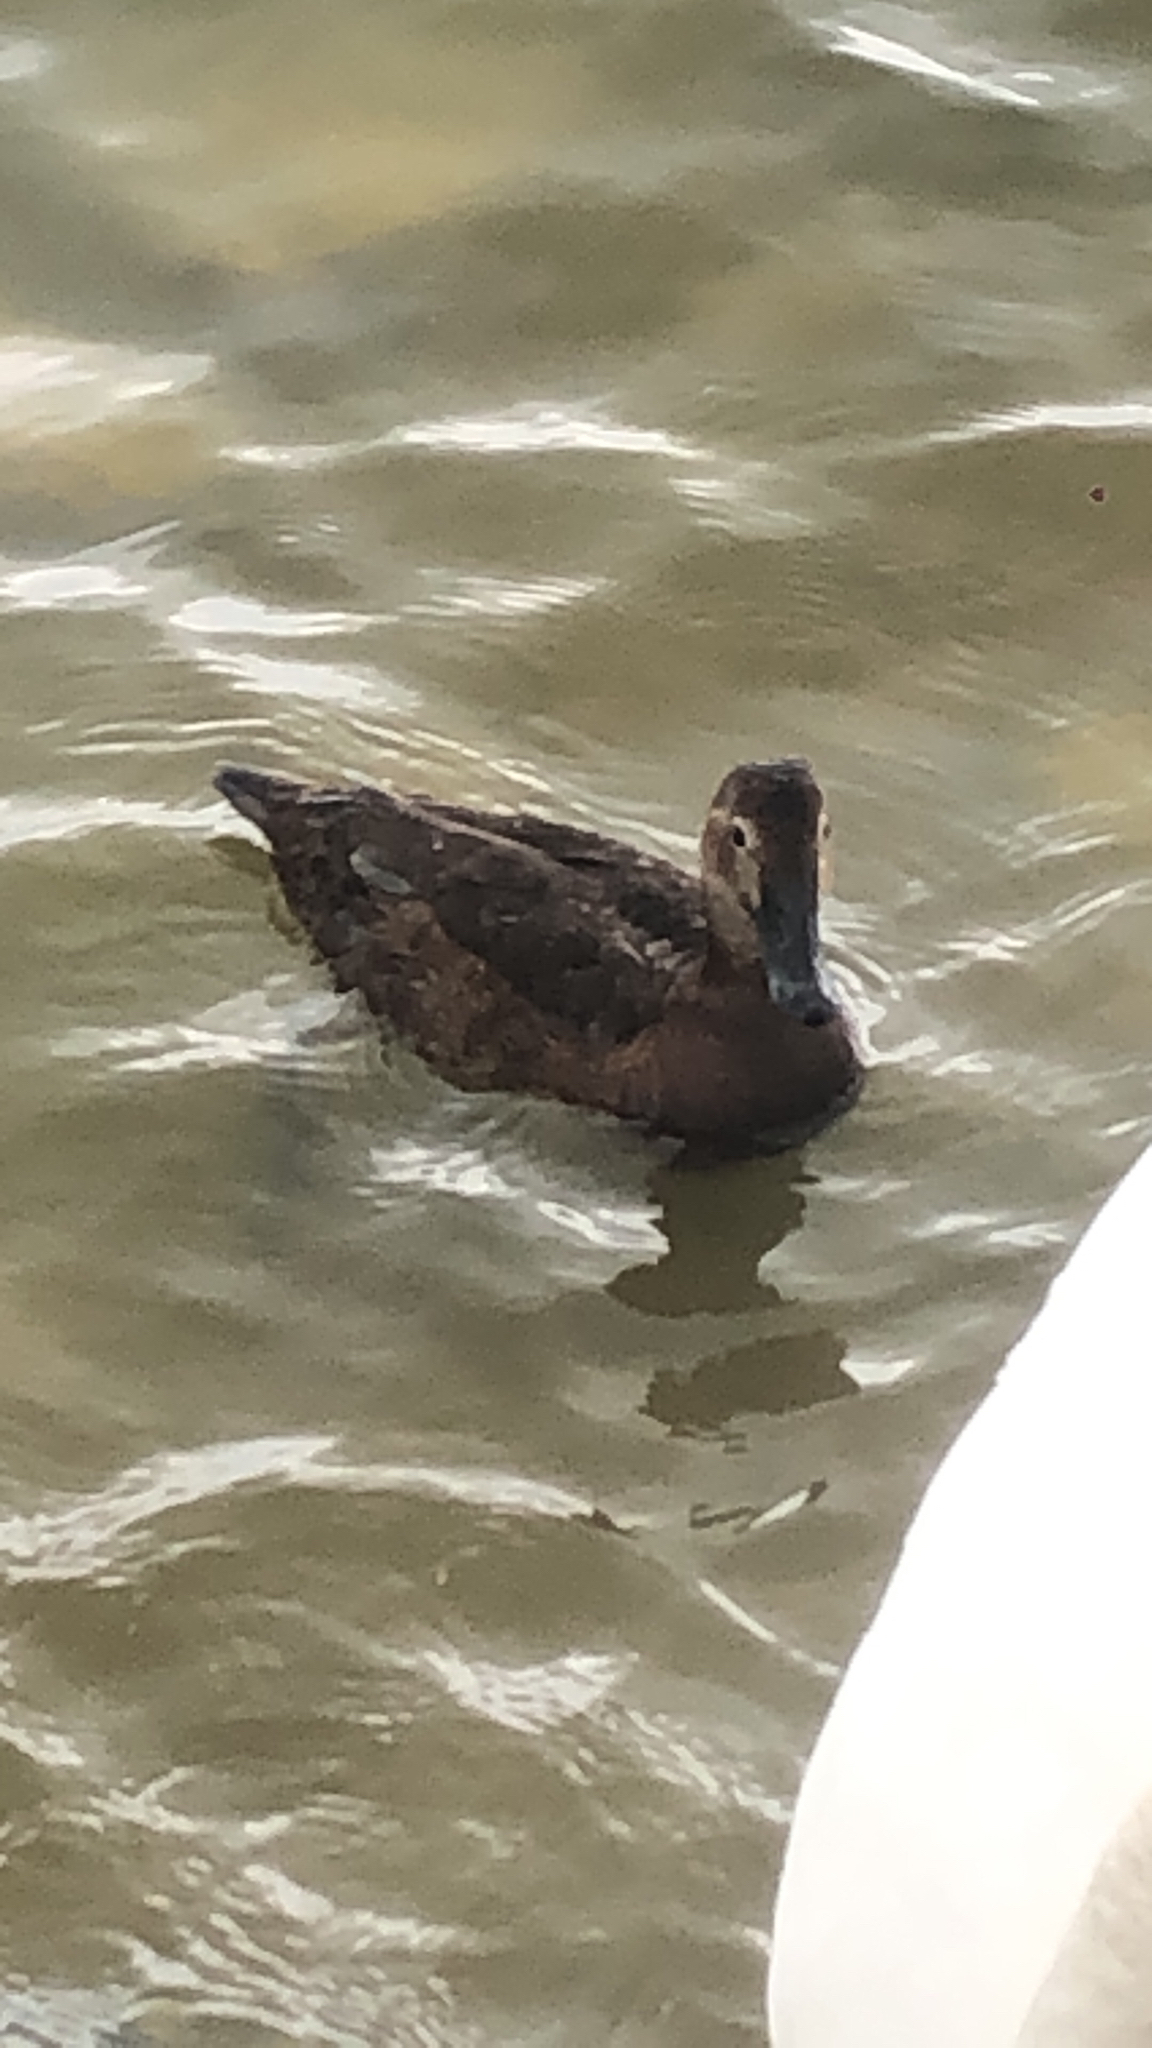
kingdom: Animalia
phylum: Chordata
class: Aves
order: Anseriformes
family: Anatidae
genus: Aythya
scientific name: Aythya ferina
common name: Common pochard
